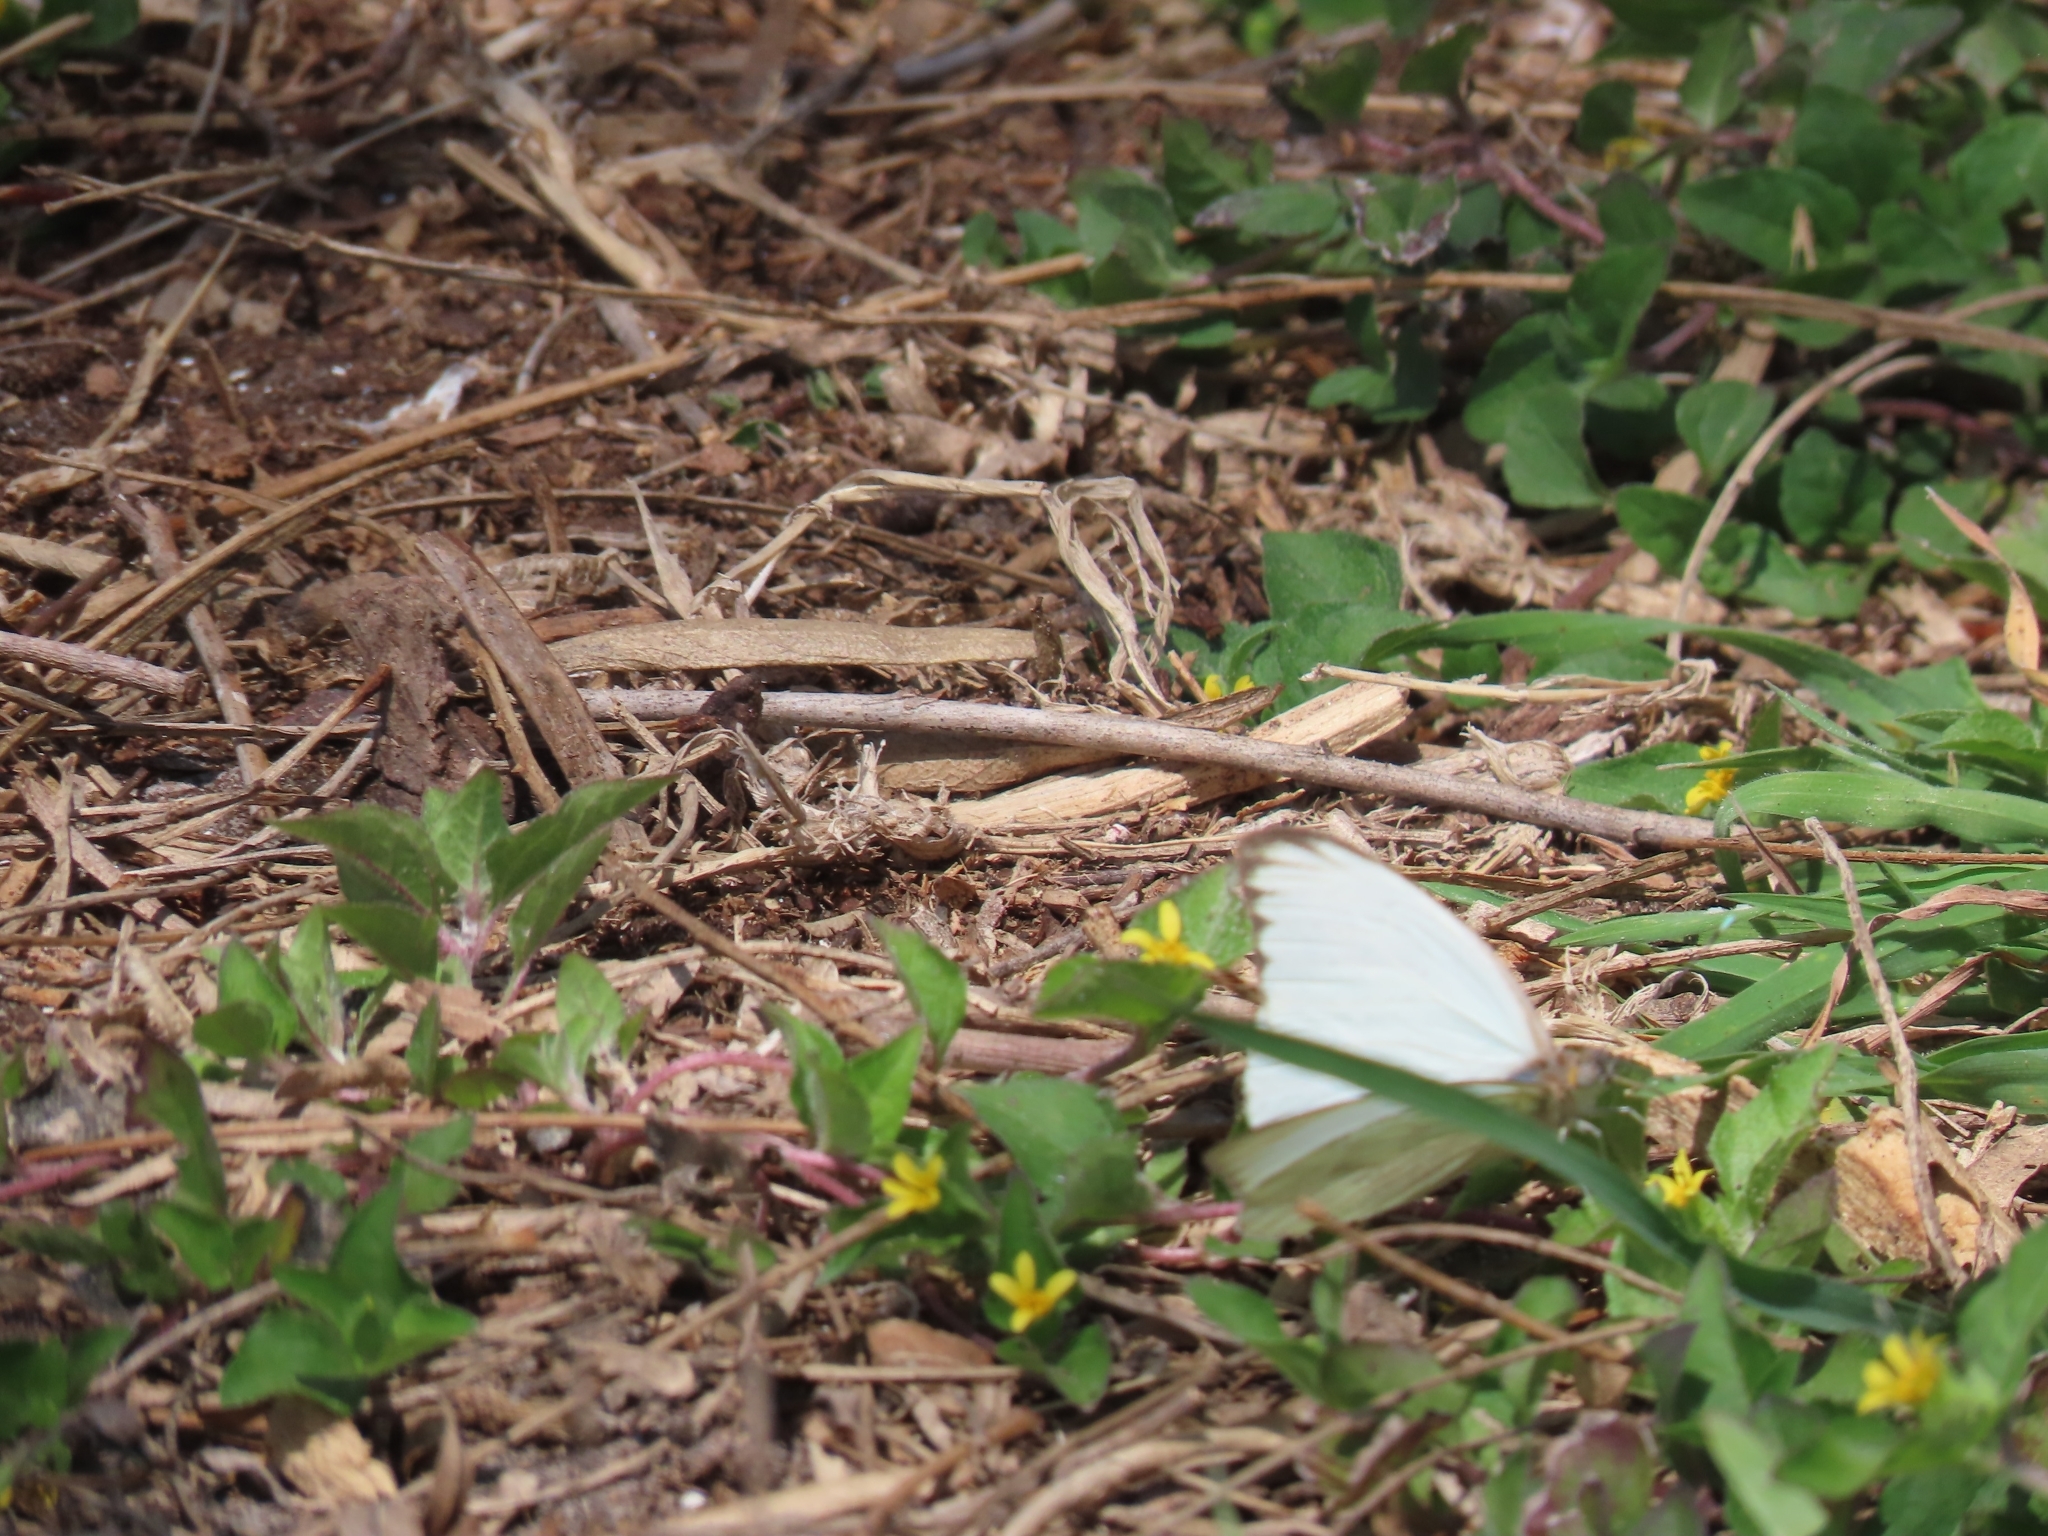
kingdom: Animalia
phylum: Arthropoda
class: Insecta
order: Lepidoptera
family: Pieridae
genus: Ascia
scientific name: Ascia monuste
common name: Great southern white
